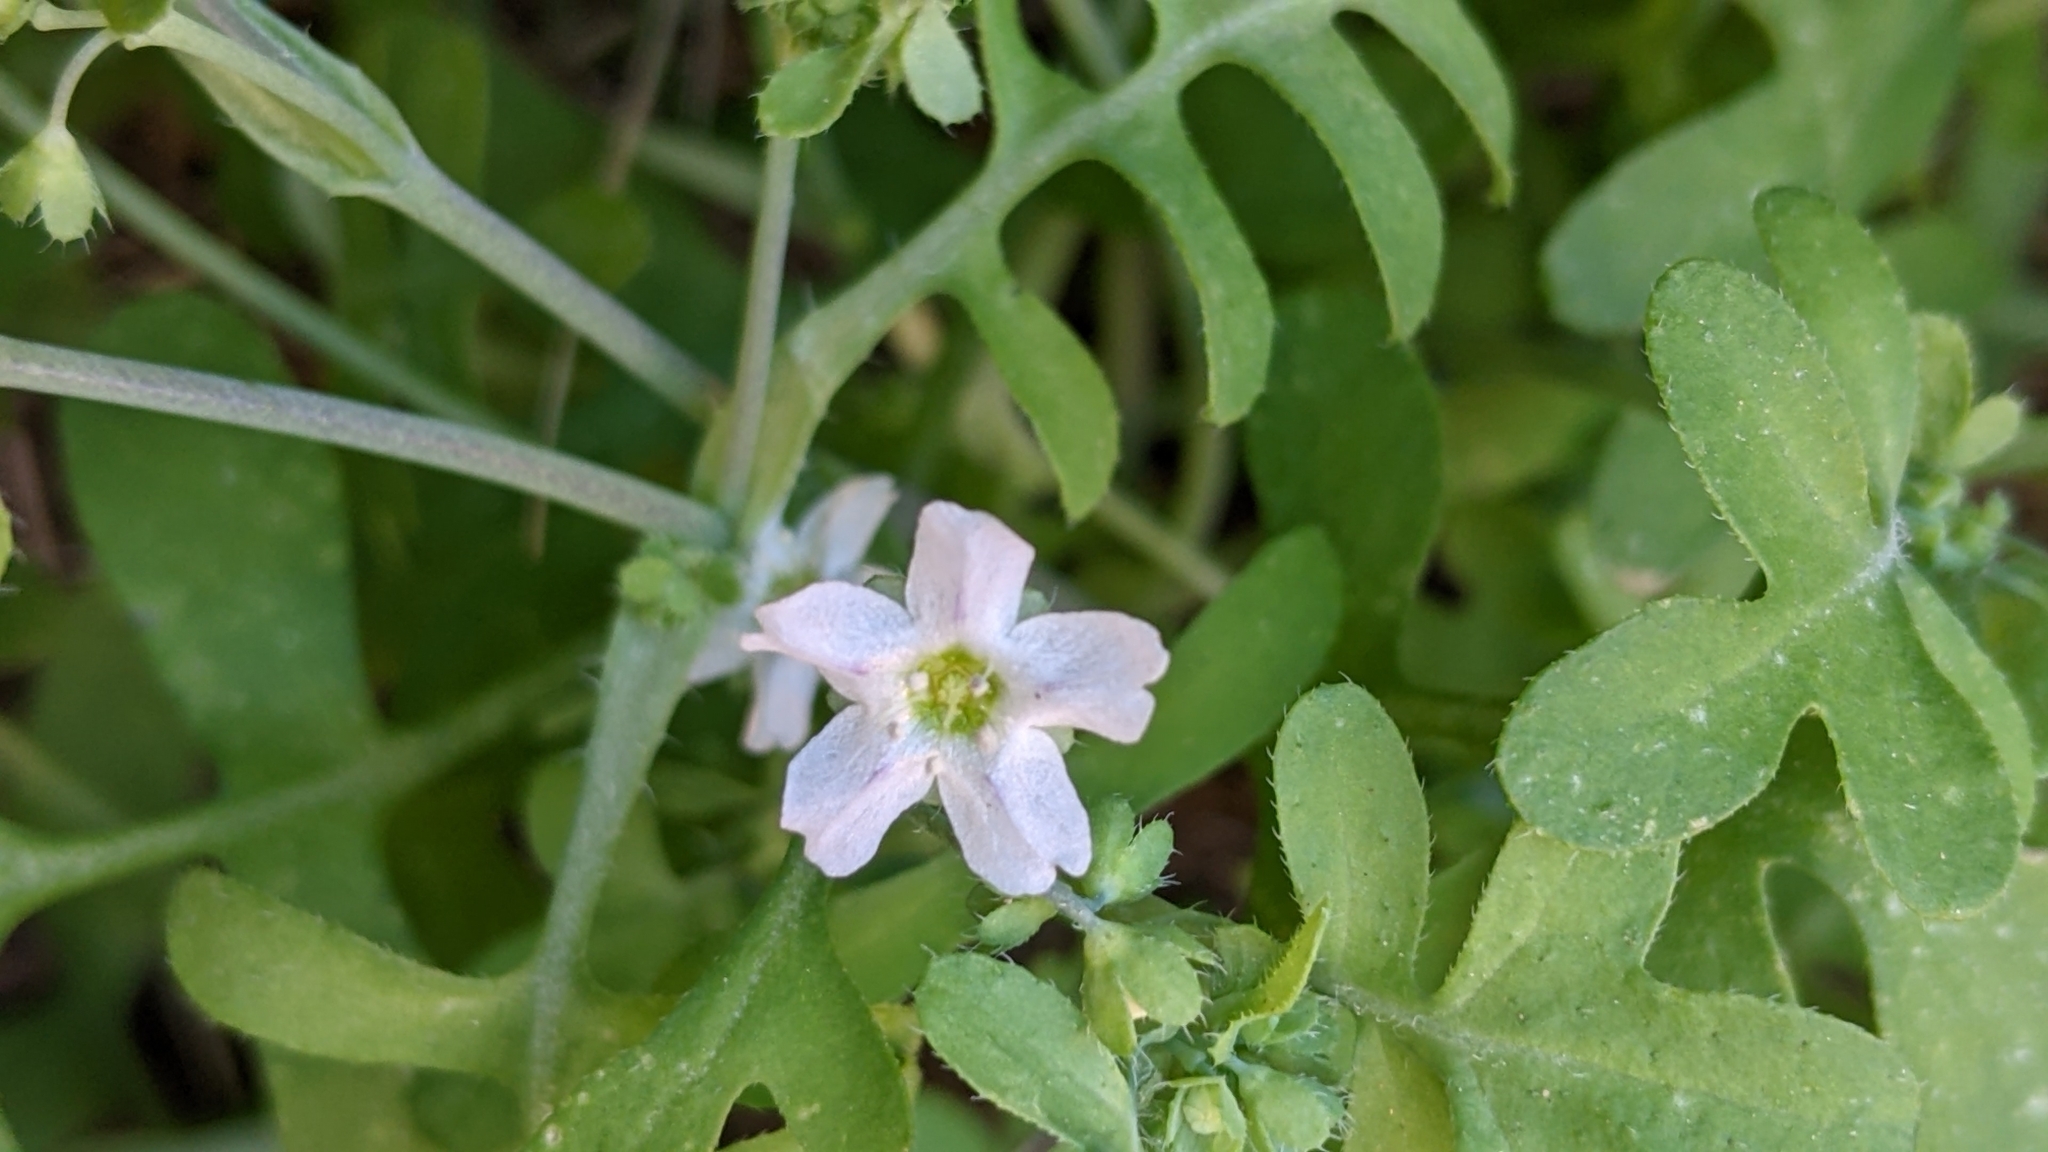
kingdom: Plantae
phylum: Tracheophyta
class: Magnoliopsida
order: Boraginales
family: Hydrophyllaceae
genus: Pholistoma
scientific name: Pholistoma membranaceum
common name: White fiesta-flower
